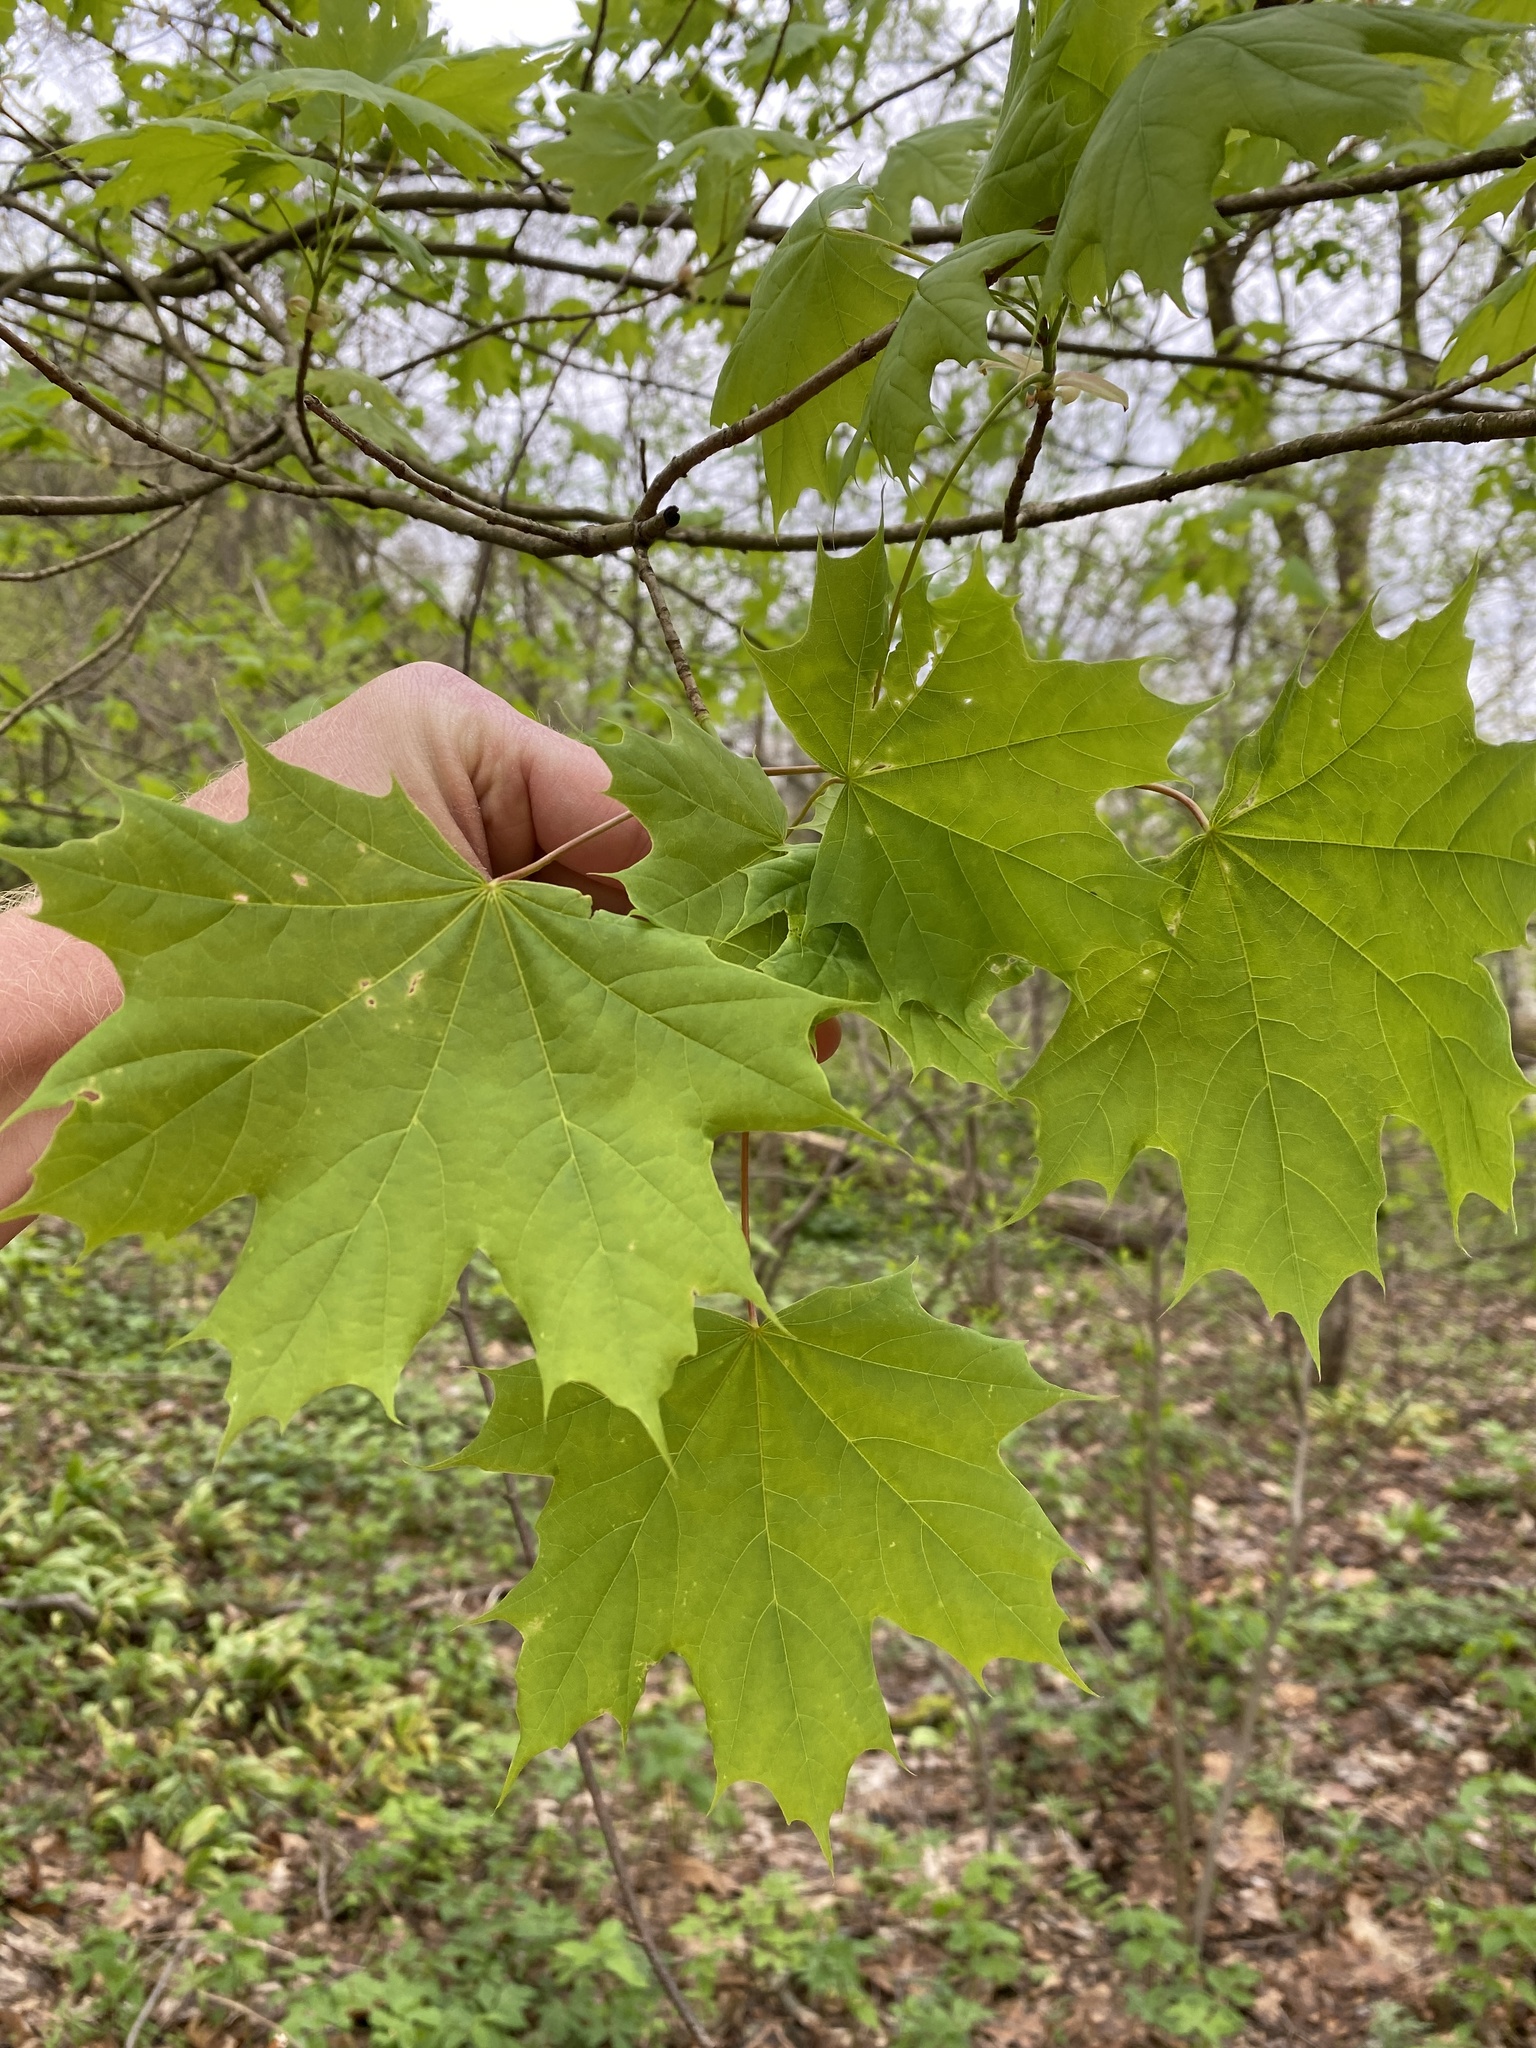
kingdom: Plantae
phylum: Tracheophyta
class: Magnoliopsida
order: Sapindales
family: Sapindaceae
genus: Acer
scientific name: Acer platanoides
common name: Norway maple
